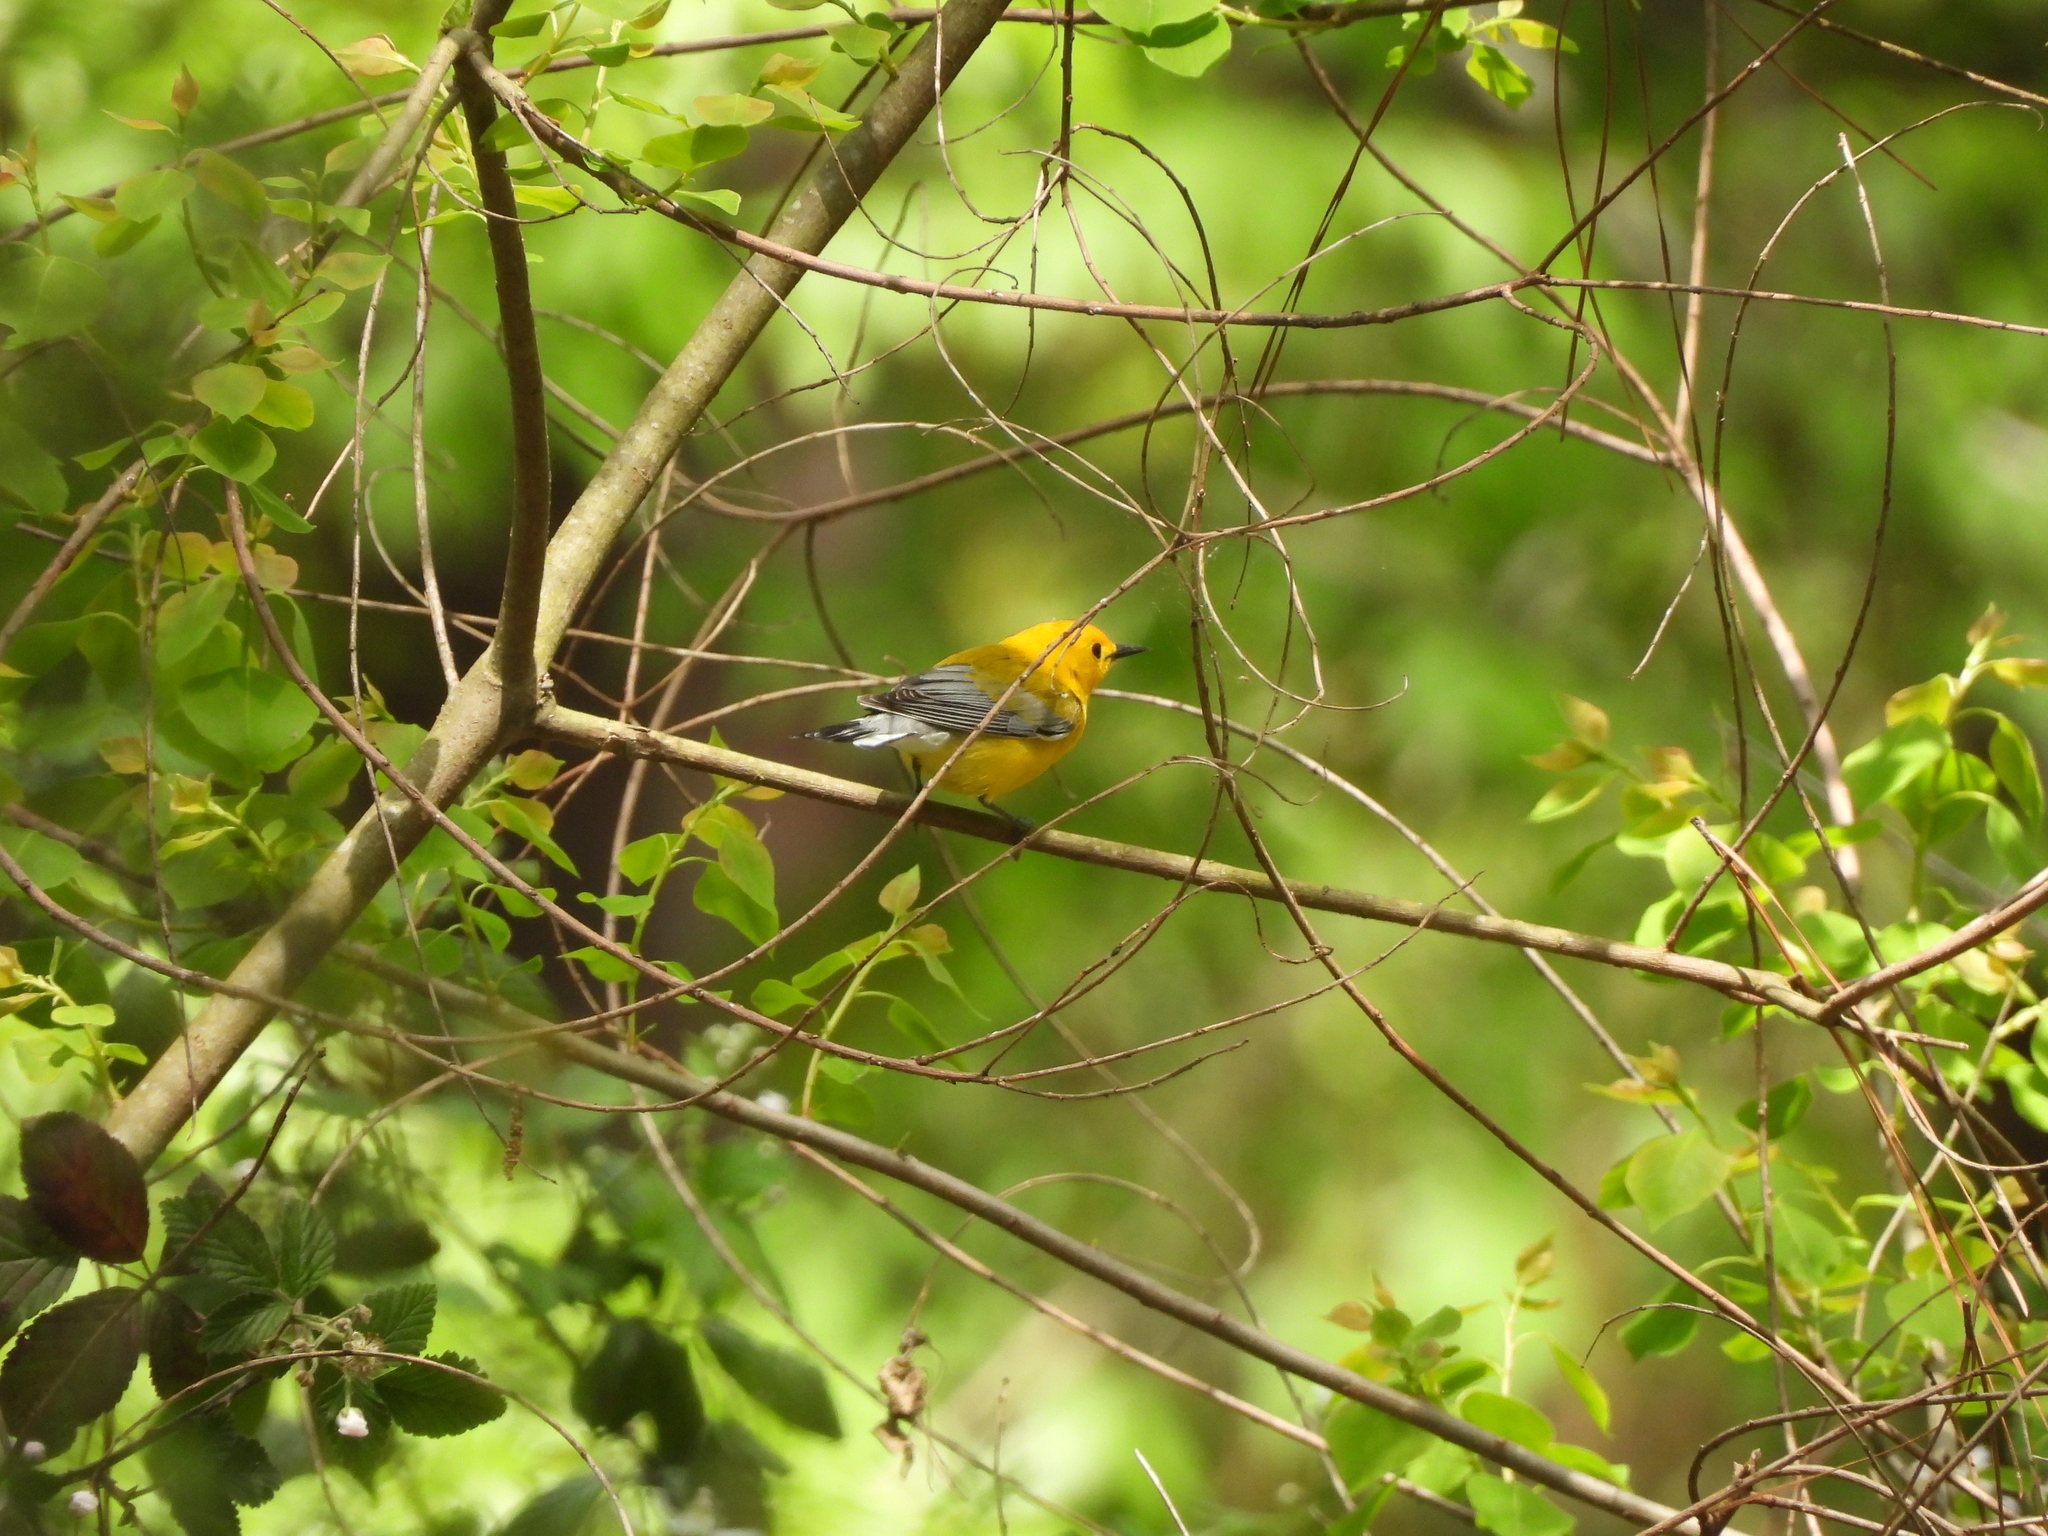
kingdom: Animalia
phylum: Chordata
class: Aves
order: Passeriformes
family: Parulidae
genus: Protonotaria
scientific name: Protonotaria citrea
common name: Prothonotary warbler
